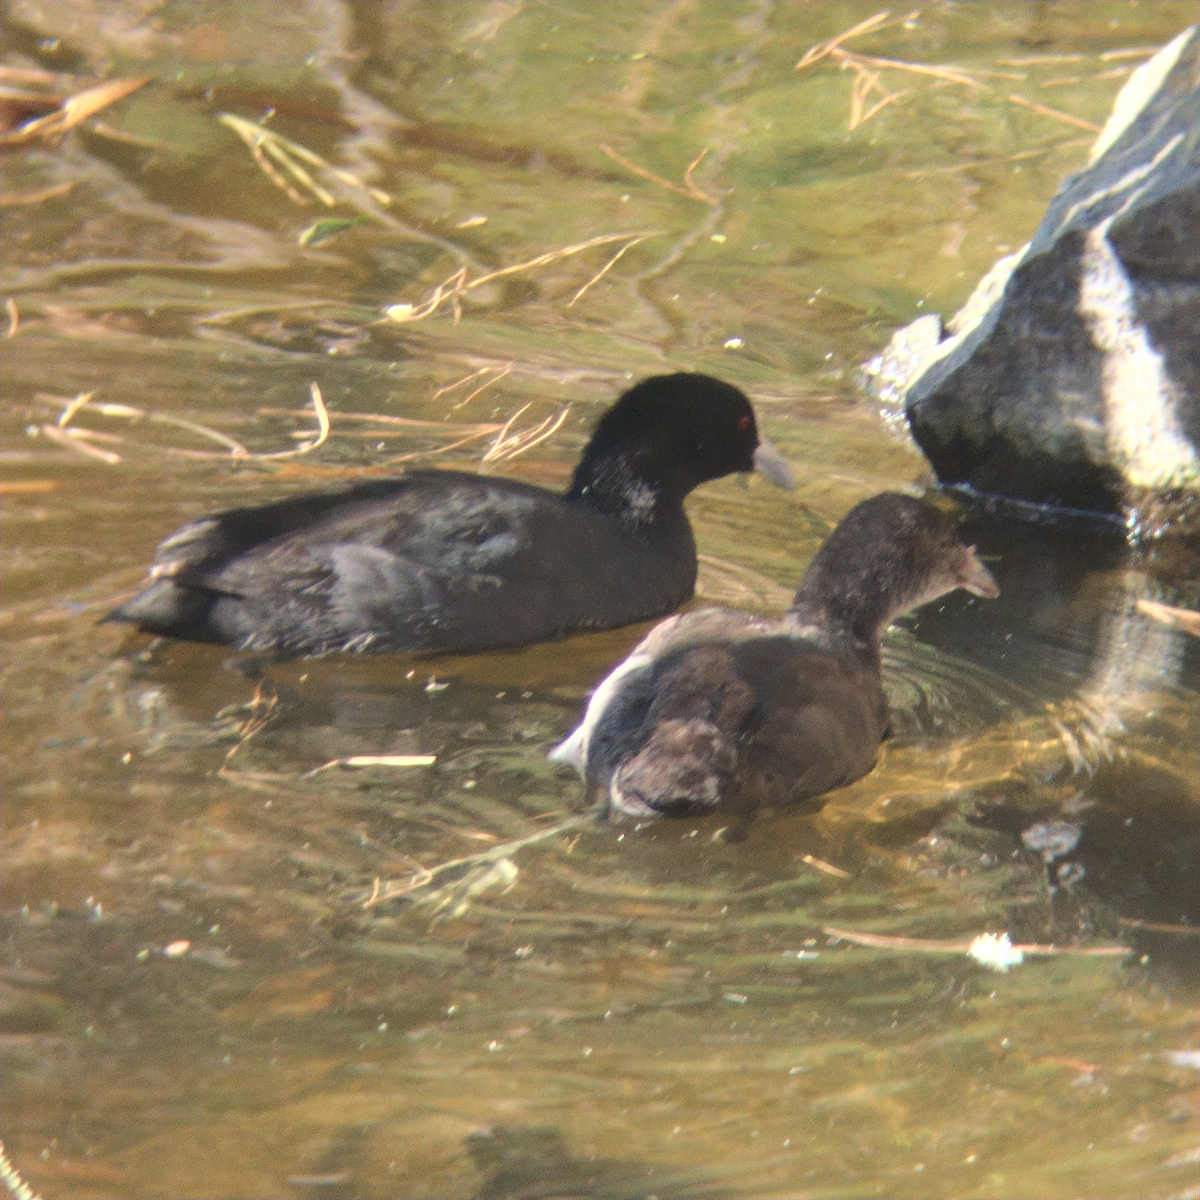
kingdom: Animalia
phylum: Chordata
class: Aves
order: Gruiformes
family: Rallidae
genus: Fulica
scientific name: Fulica atra
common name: Eurasian coot
